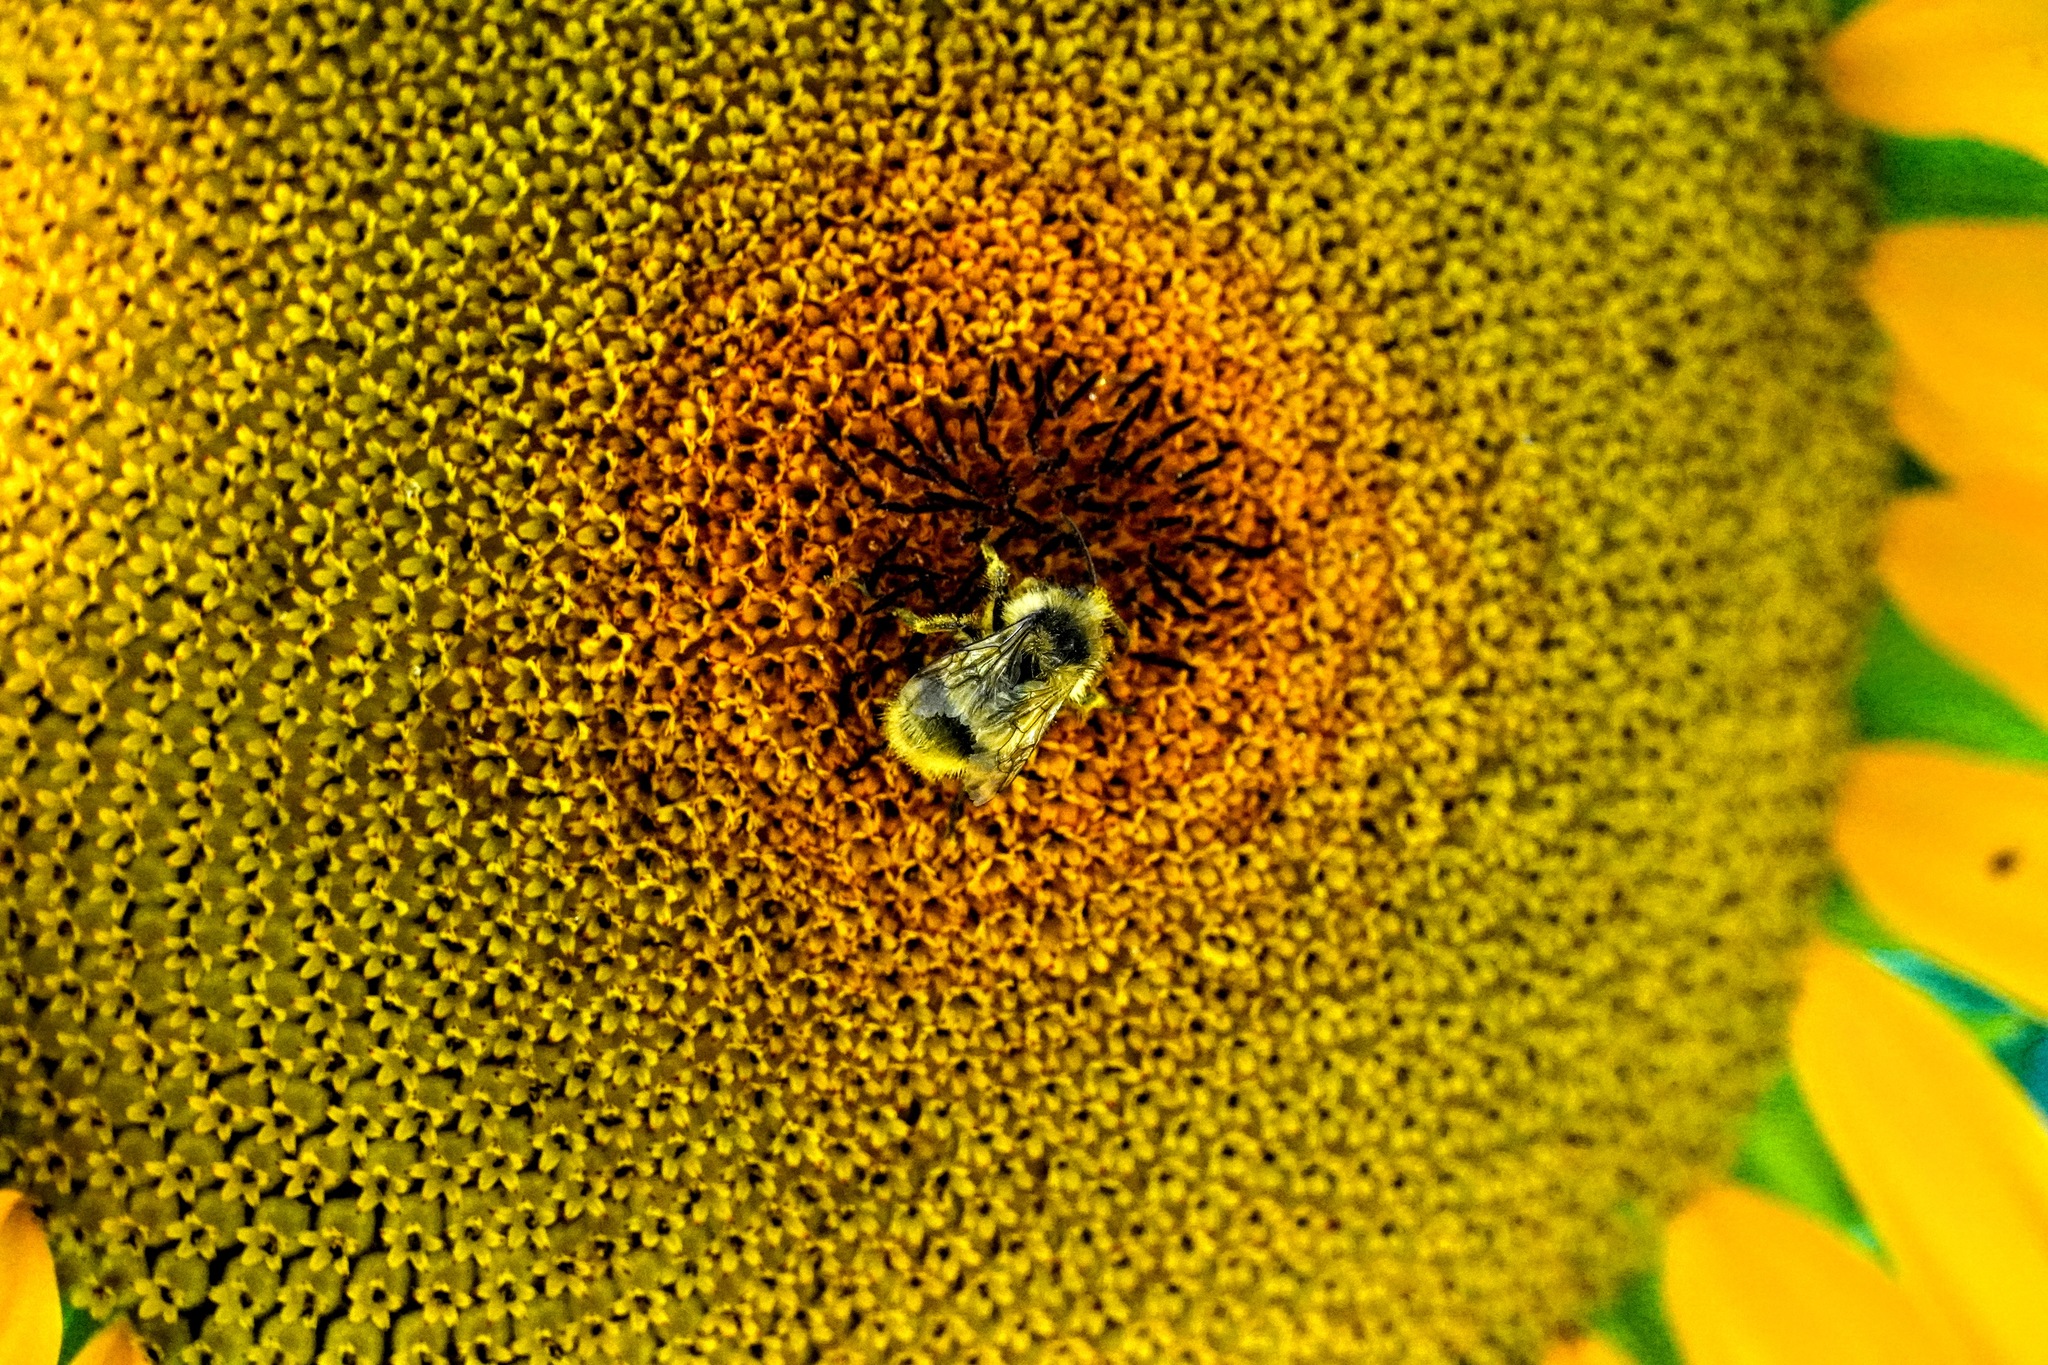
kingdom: Animalia
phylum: Arthropoda
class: Insecta
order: Hymenoptera
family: Apidae
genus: Bombus
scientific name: Bombus mixtus
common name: Fuzzy-horned bumble bee
